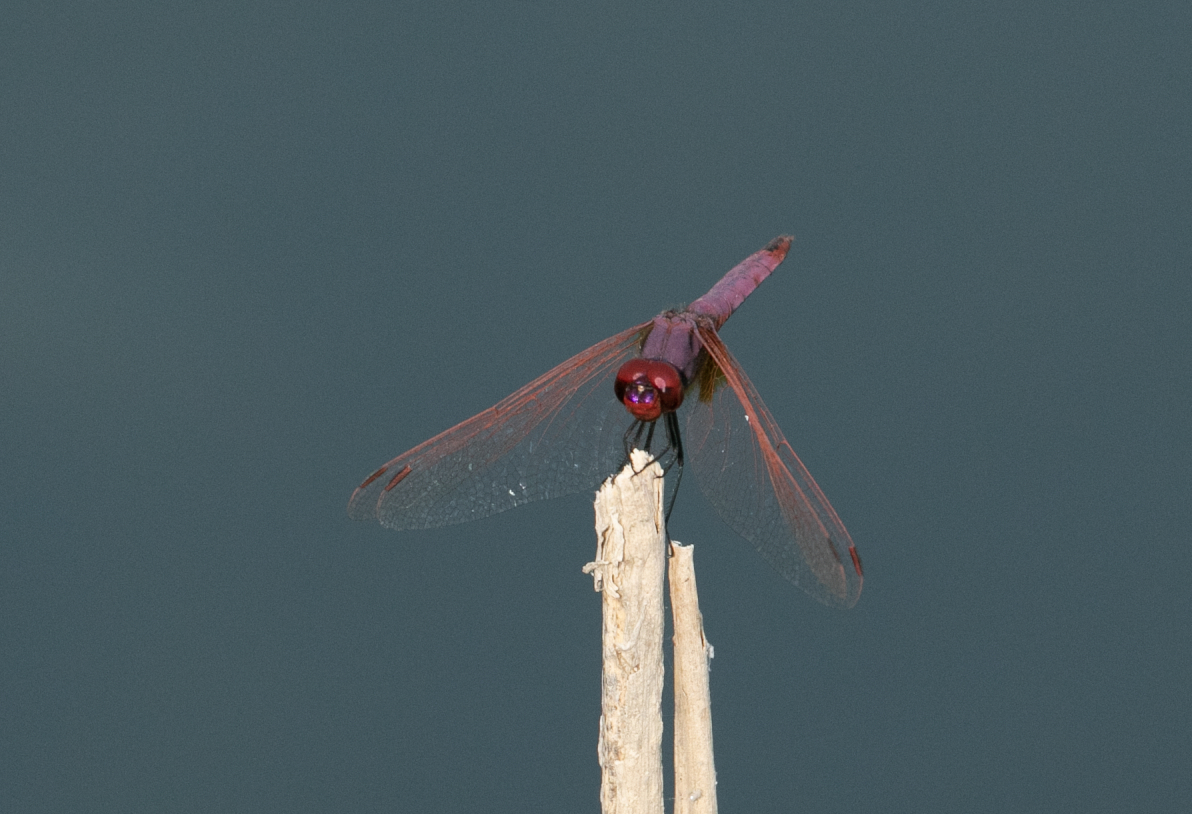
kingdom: Animalia
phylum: Arthropoda
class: Insecta
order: Odonata
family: Libellulidae
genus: Trithemis
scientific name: Trithemis annulata
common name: Violet dropwing
